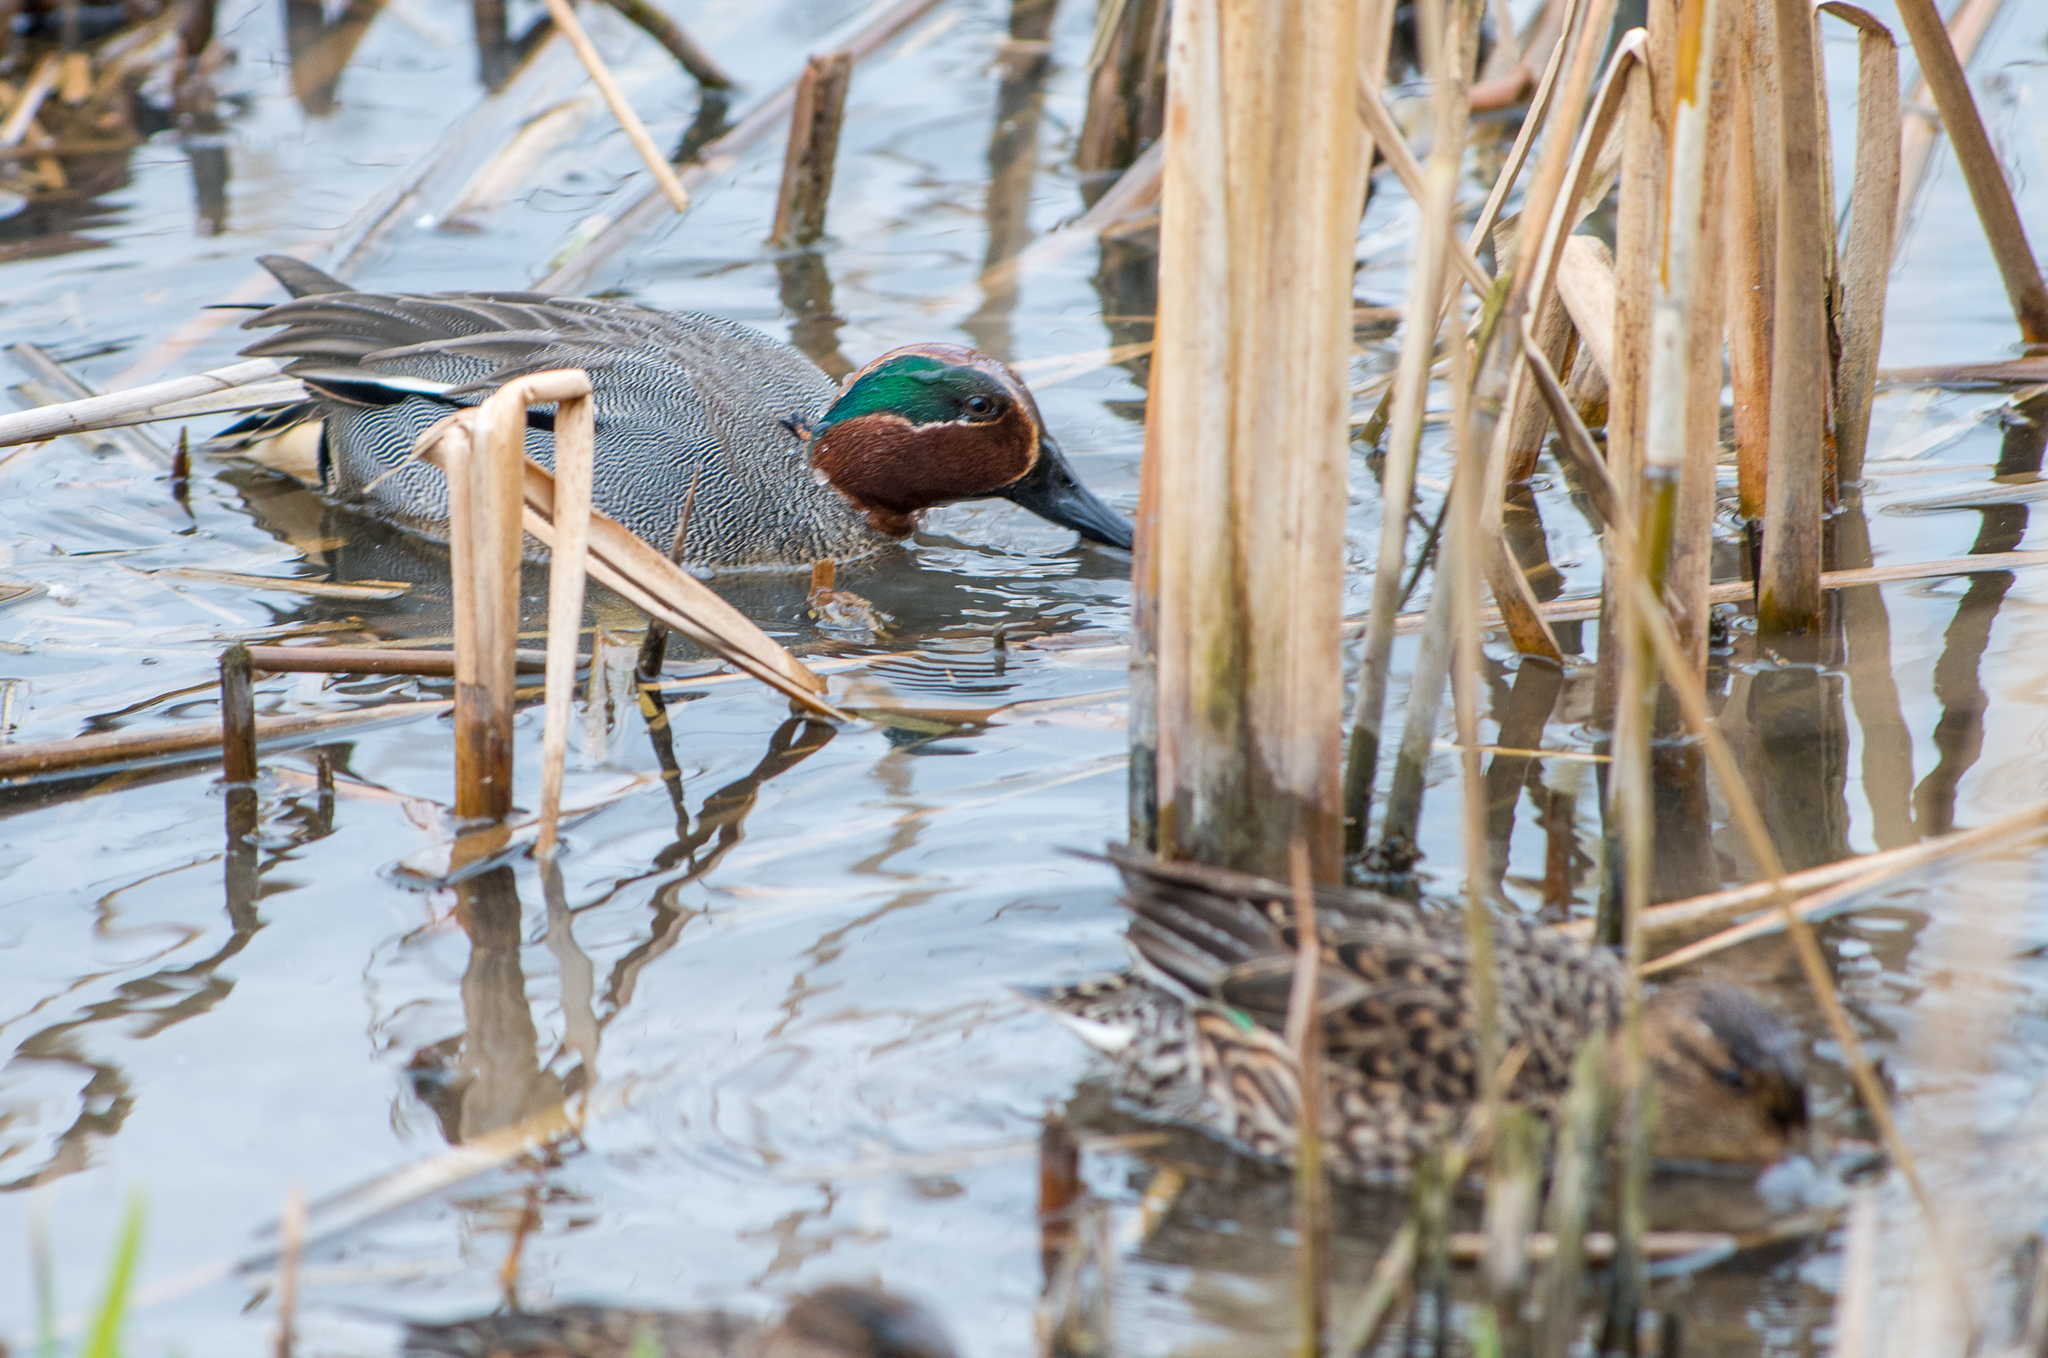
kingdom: Animalia
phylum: Chordata
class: Aves
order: Anseriformes
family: Anatidae
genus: Anas
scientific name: Anas crecca
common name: Eurasian teal
